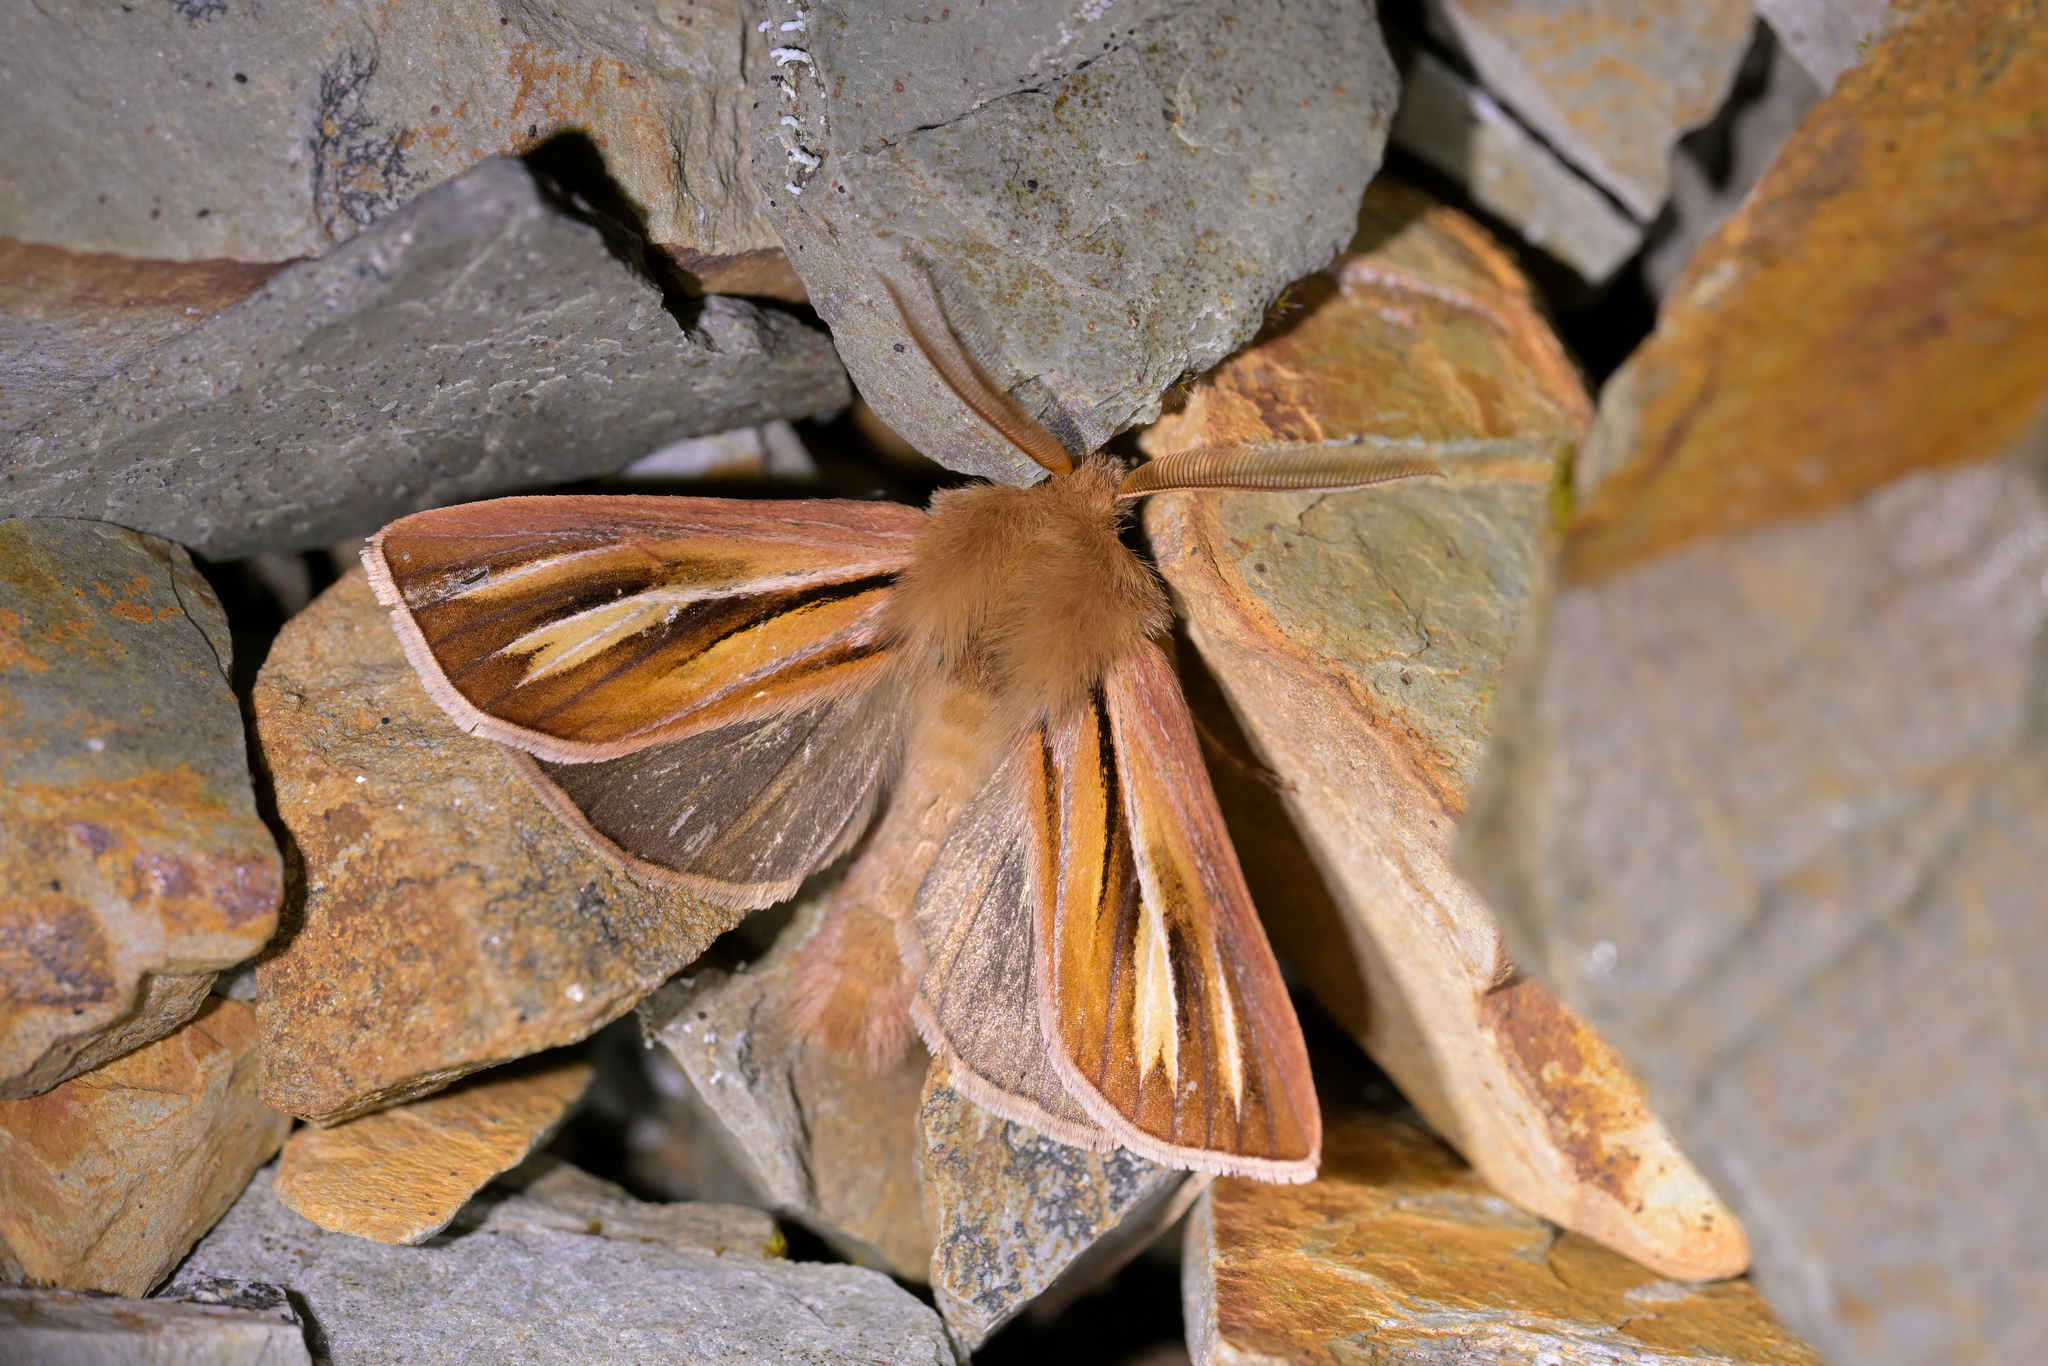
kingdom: Animalia
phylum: Arthropoda
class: Insecta
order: Lepidoptera
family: Noctuidae
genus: Ichneutica
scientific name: Ichneutica caraunias
